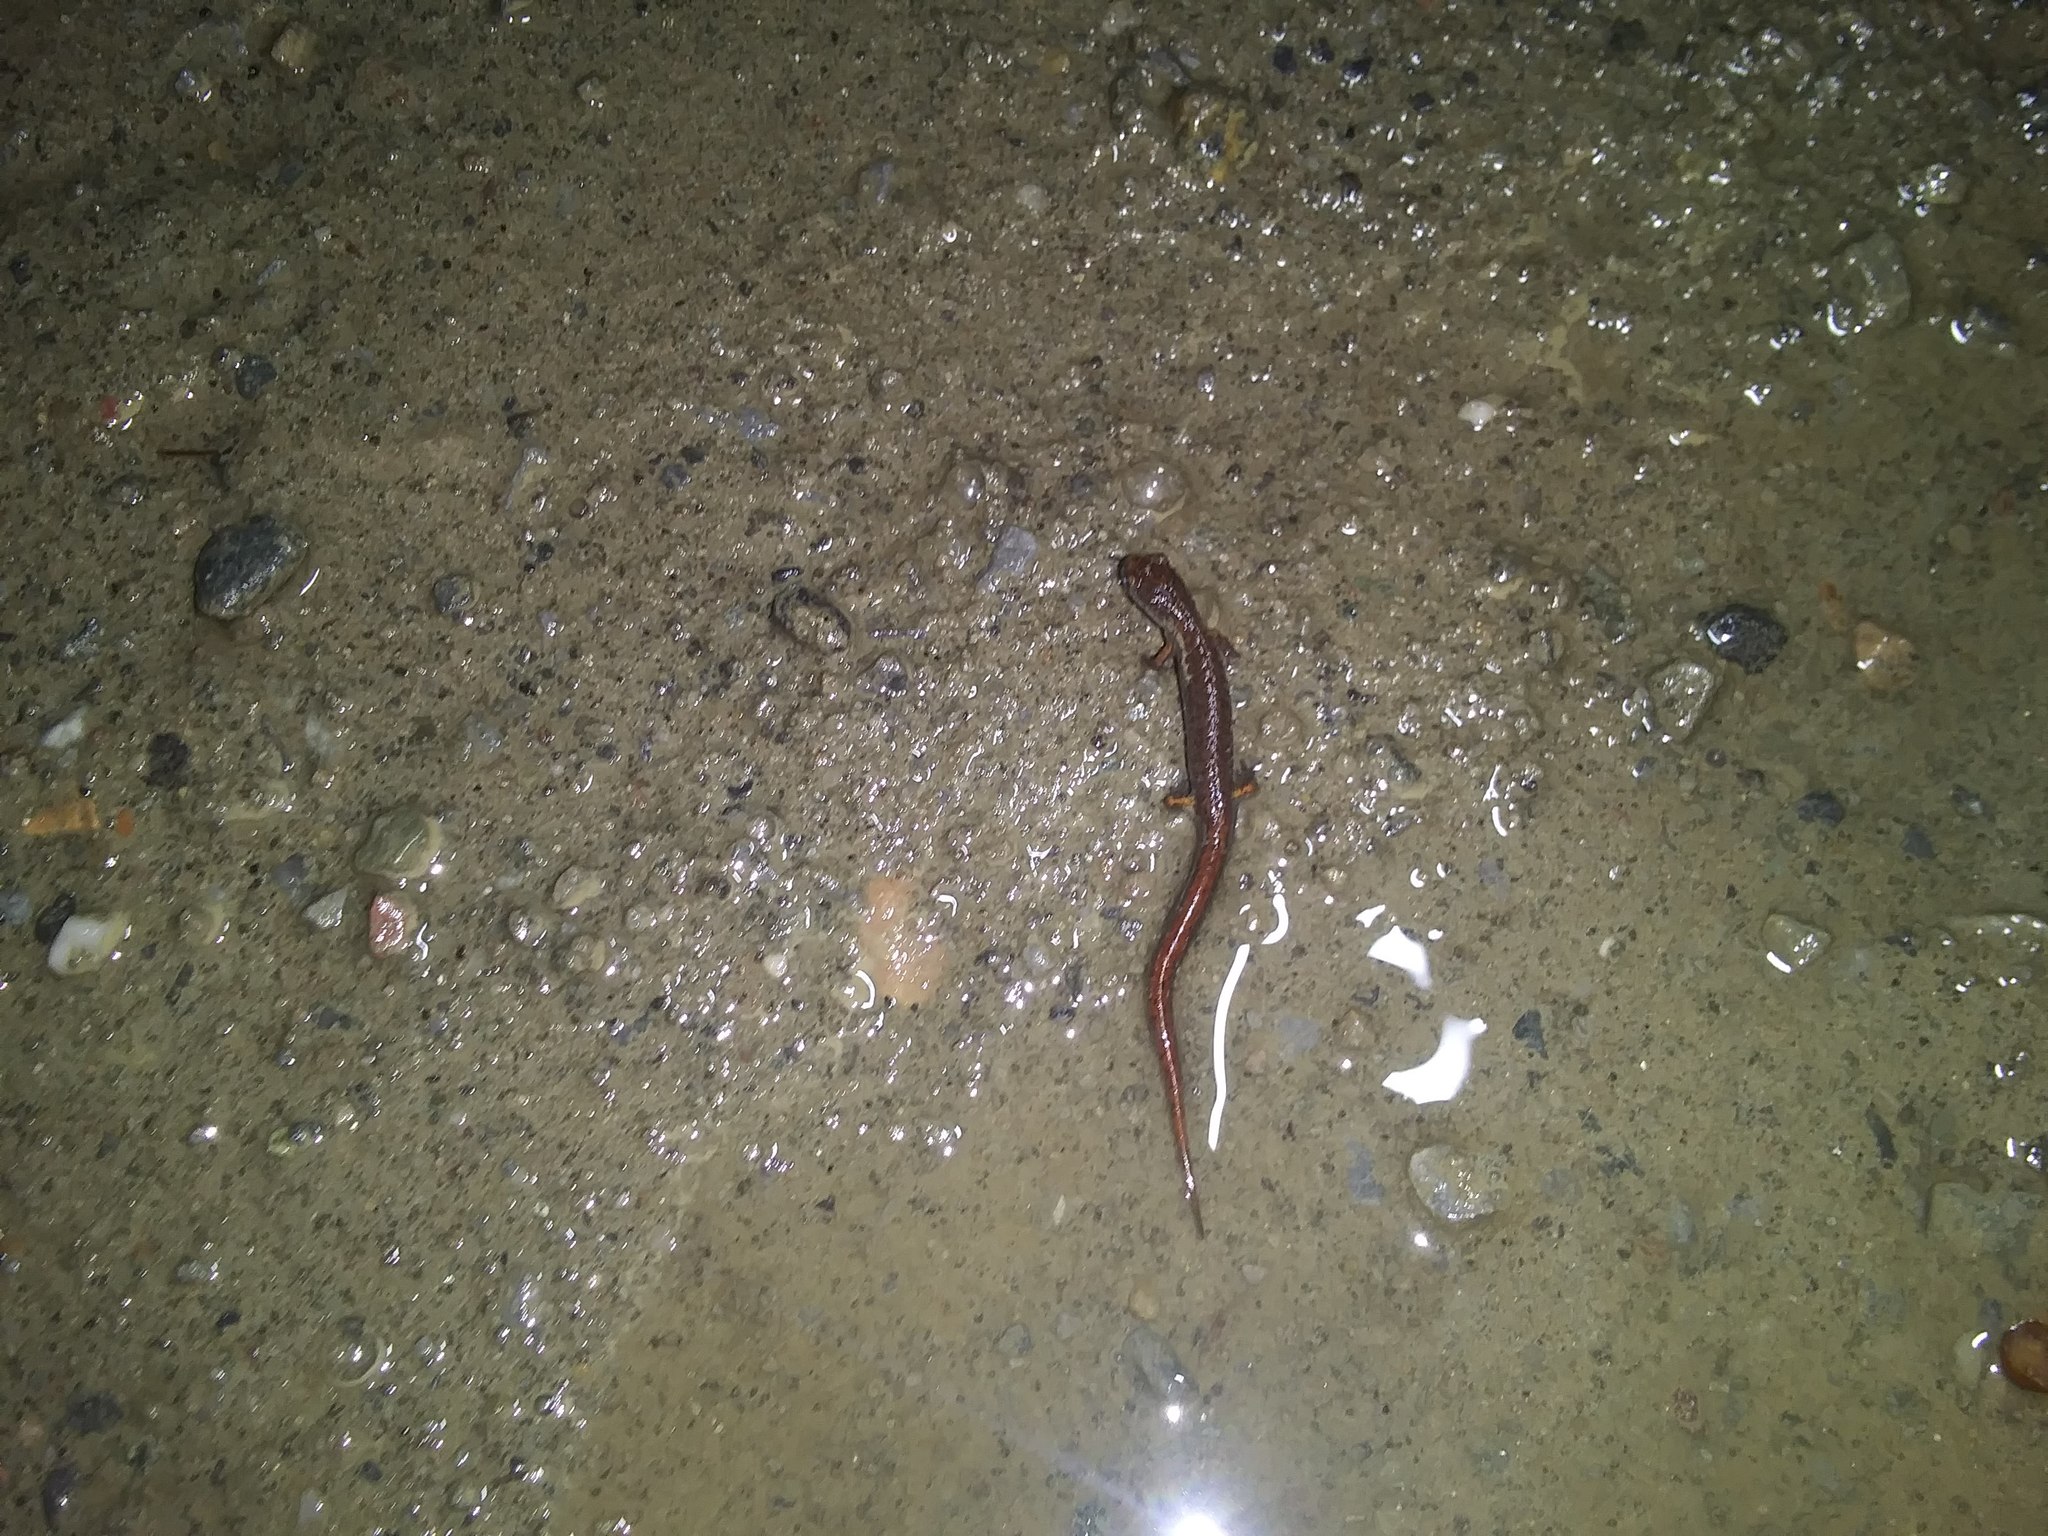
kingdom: Animalia
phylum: Chordata
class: Amphibia
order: Caudata
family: Plethodontidae
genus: Hemidactylium
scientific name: Hemidactylium scutatum
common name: Four-toed salamander
